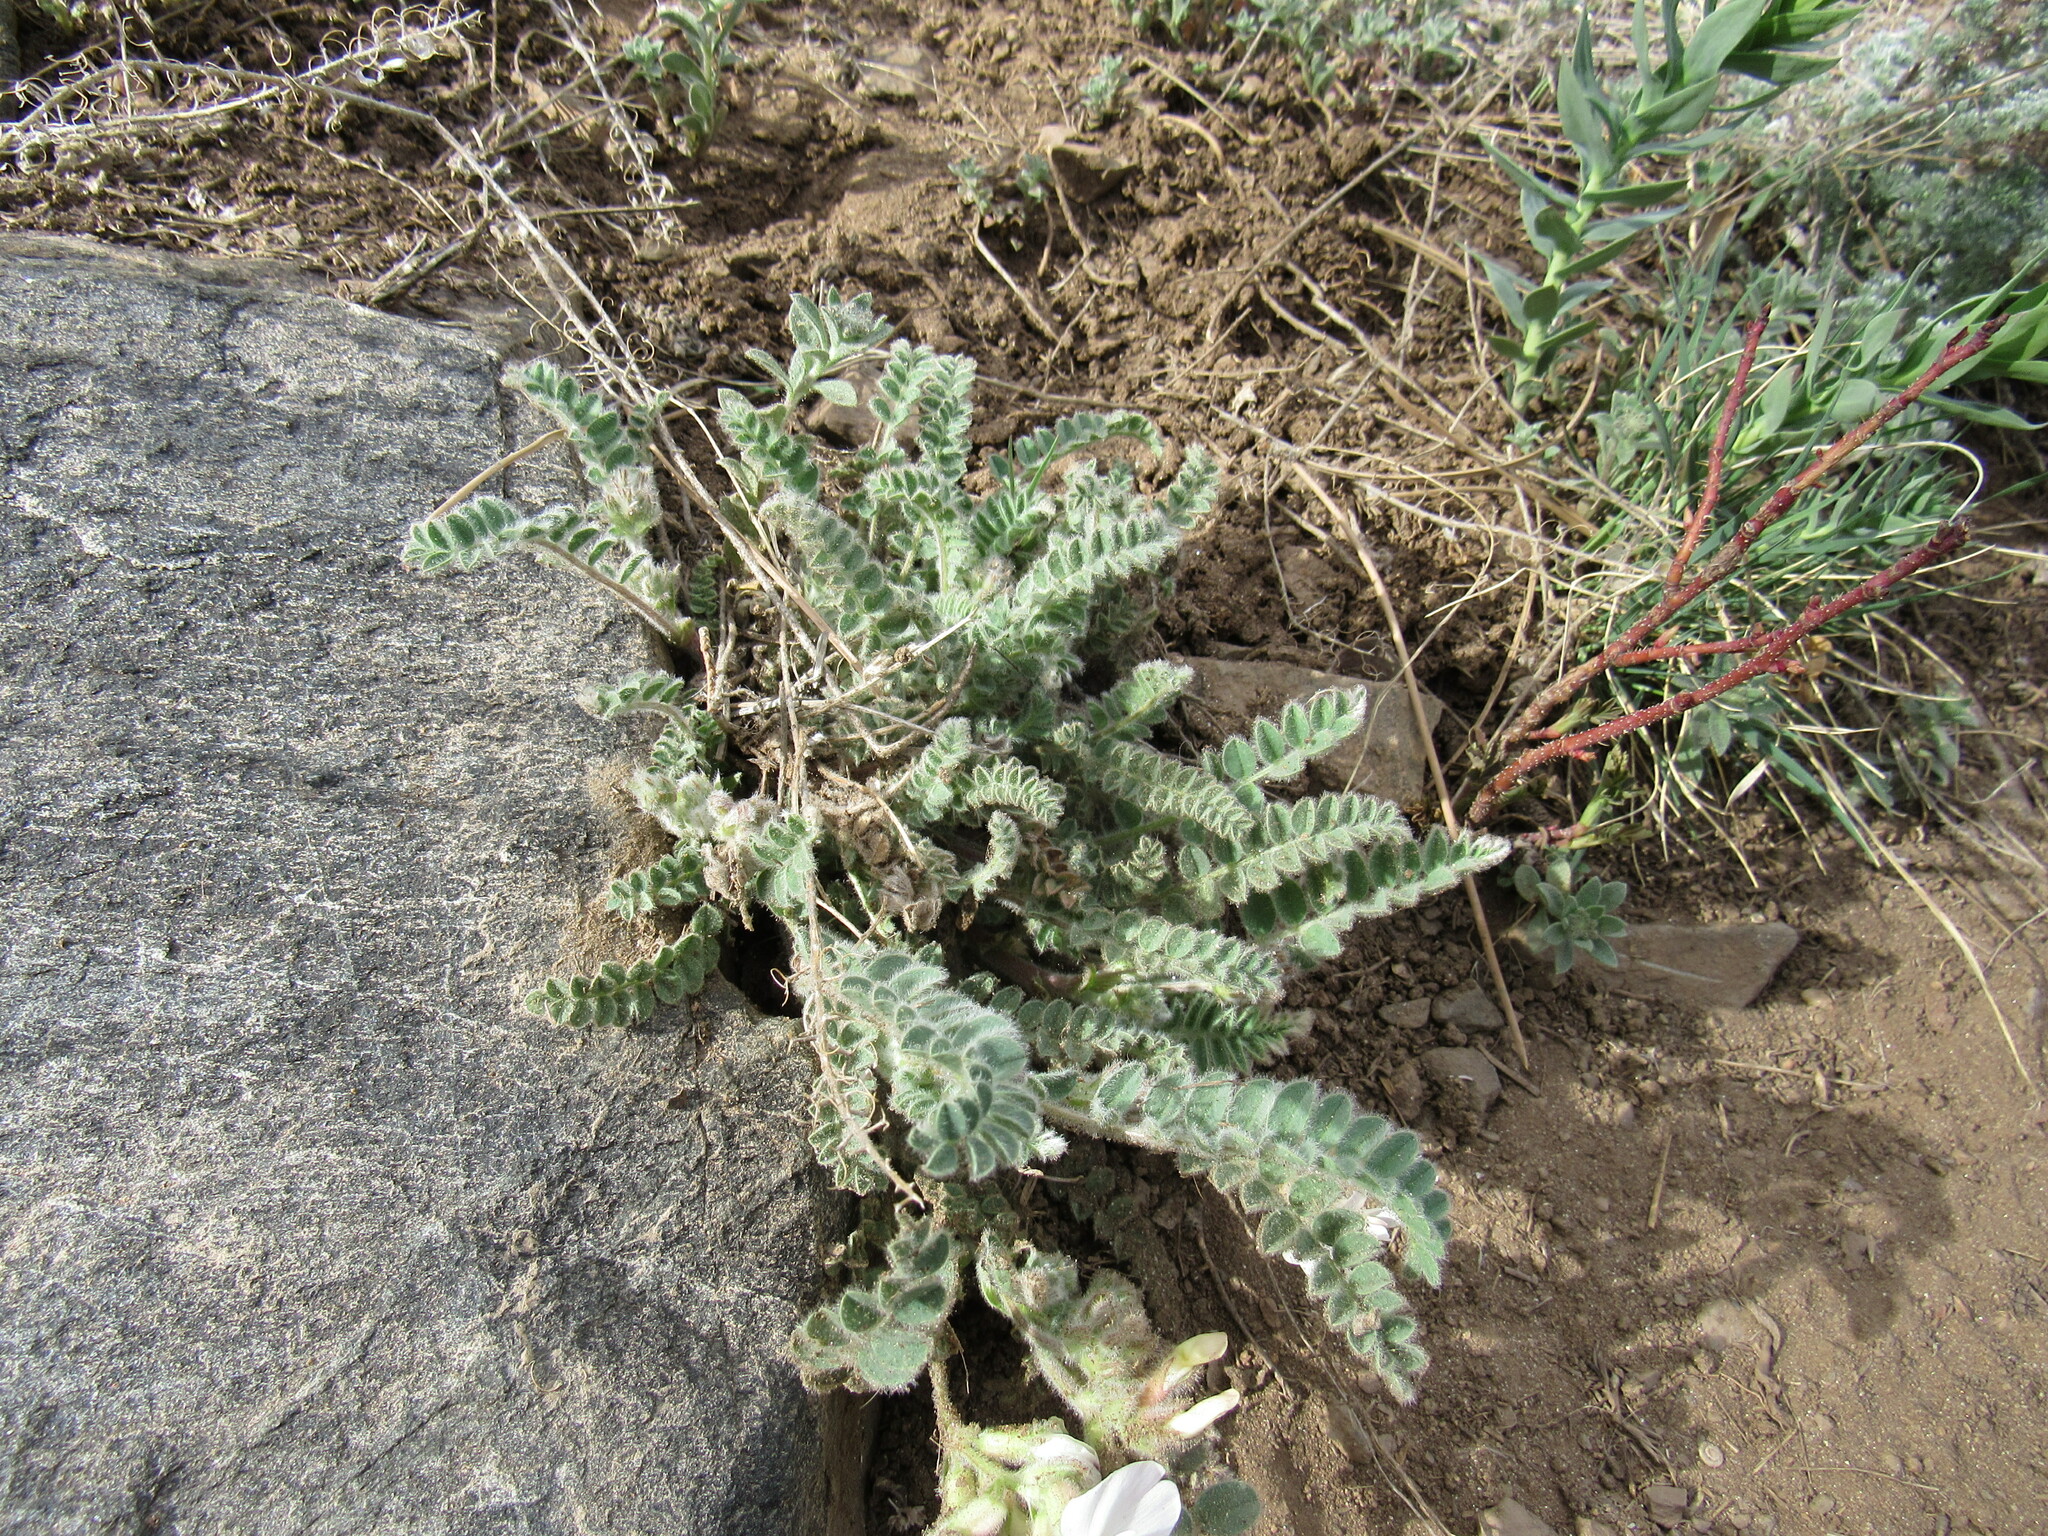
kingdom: Plantae
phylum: Tracheophyta
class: Magnoliopsida
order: Fabales
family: Fabaceae
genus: Astragalus
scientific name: Astragalus parryi
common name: Parry milk-vetch
